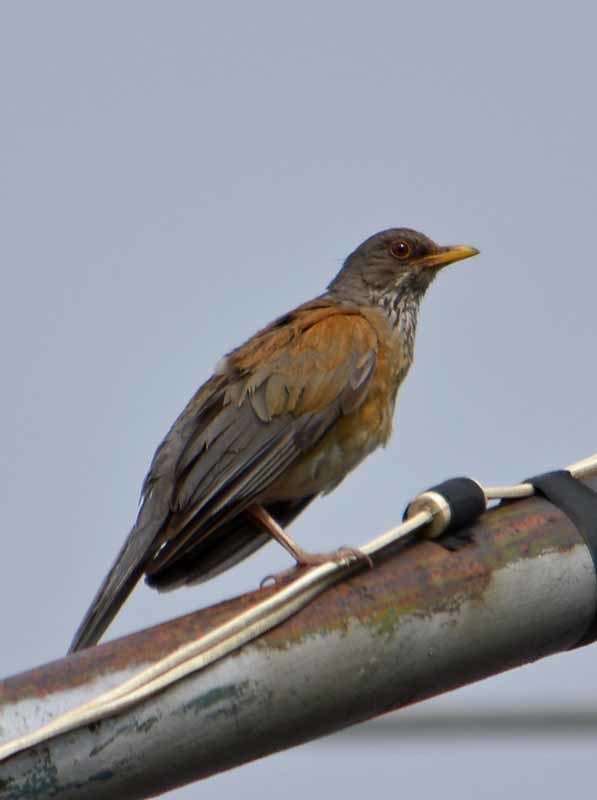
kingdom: Animalia
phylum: Chordata
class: Aves
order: Passeriformes
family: Turdidae
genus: Turdus
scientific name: Turdus rufopalliatus
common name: Rufous-backed robin
